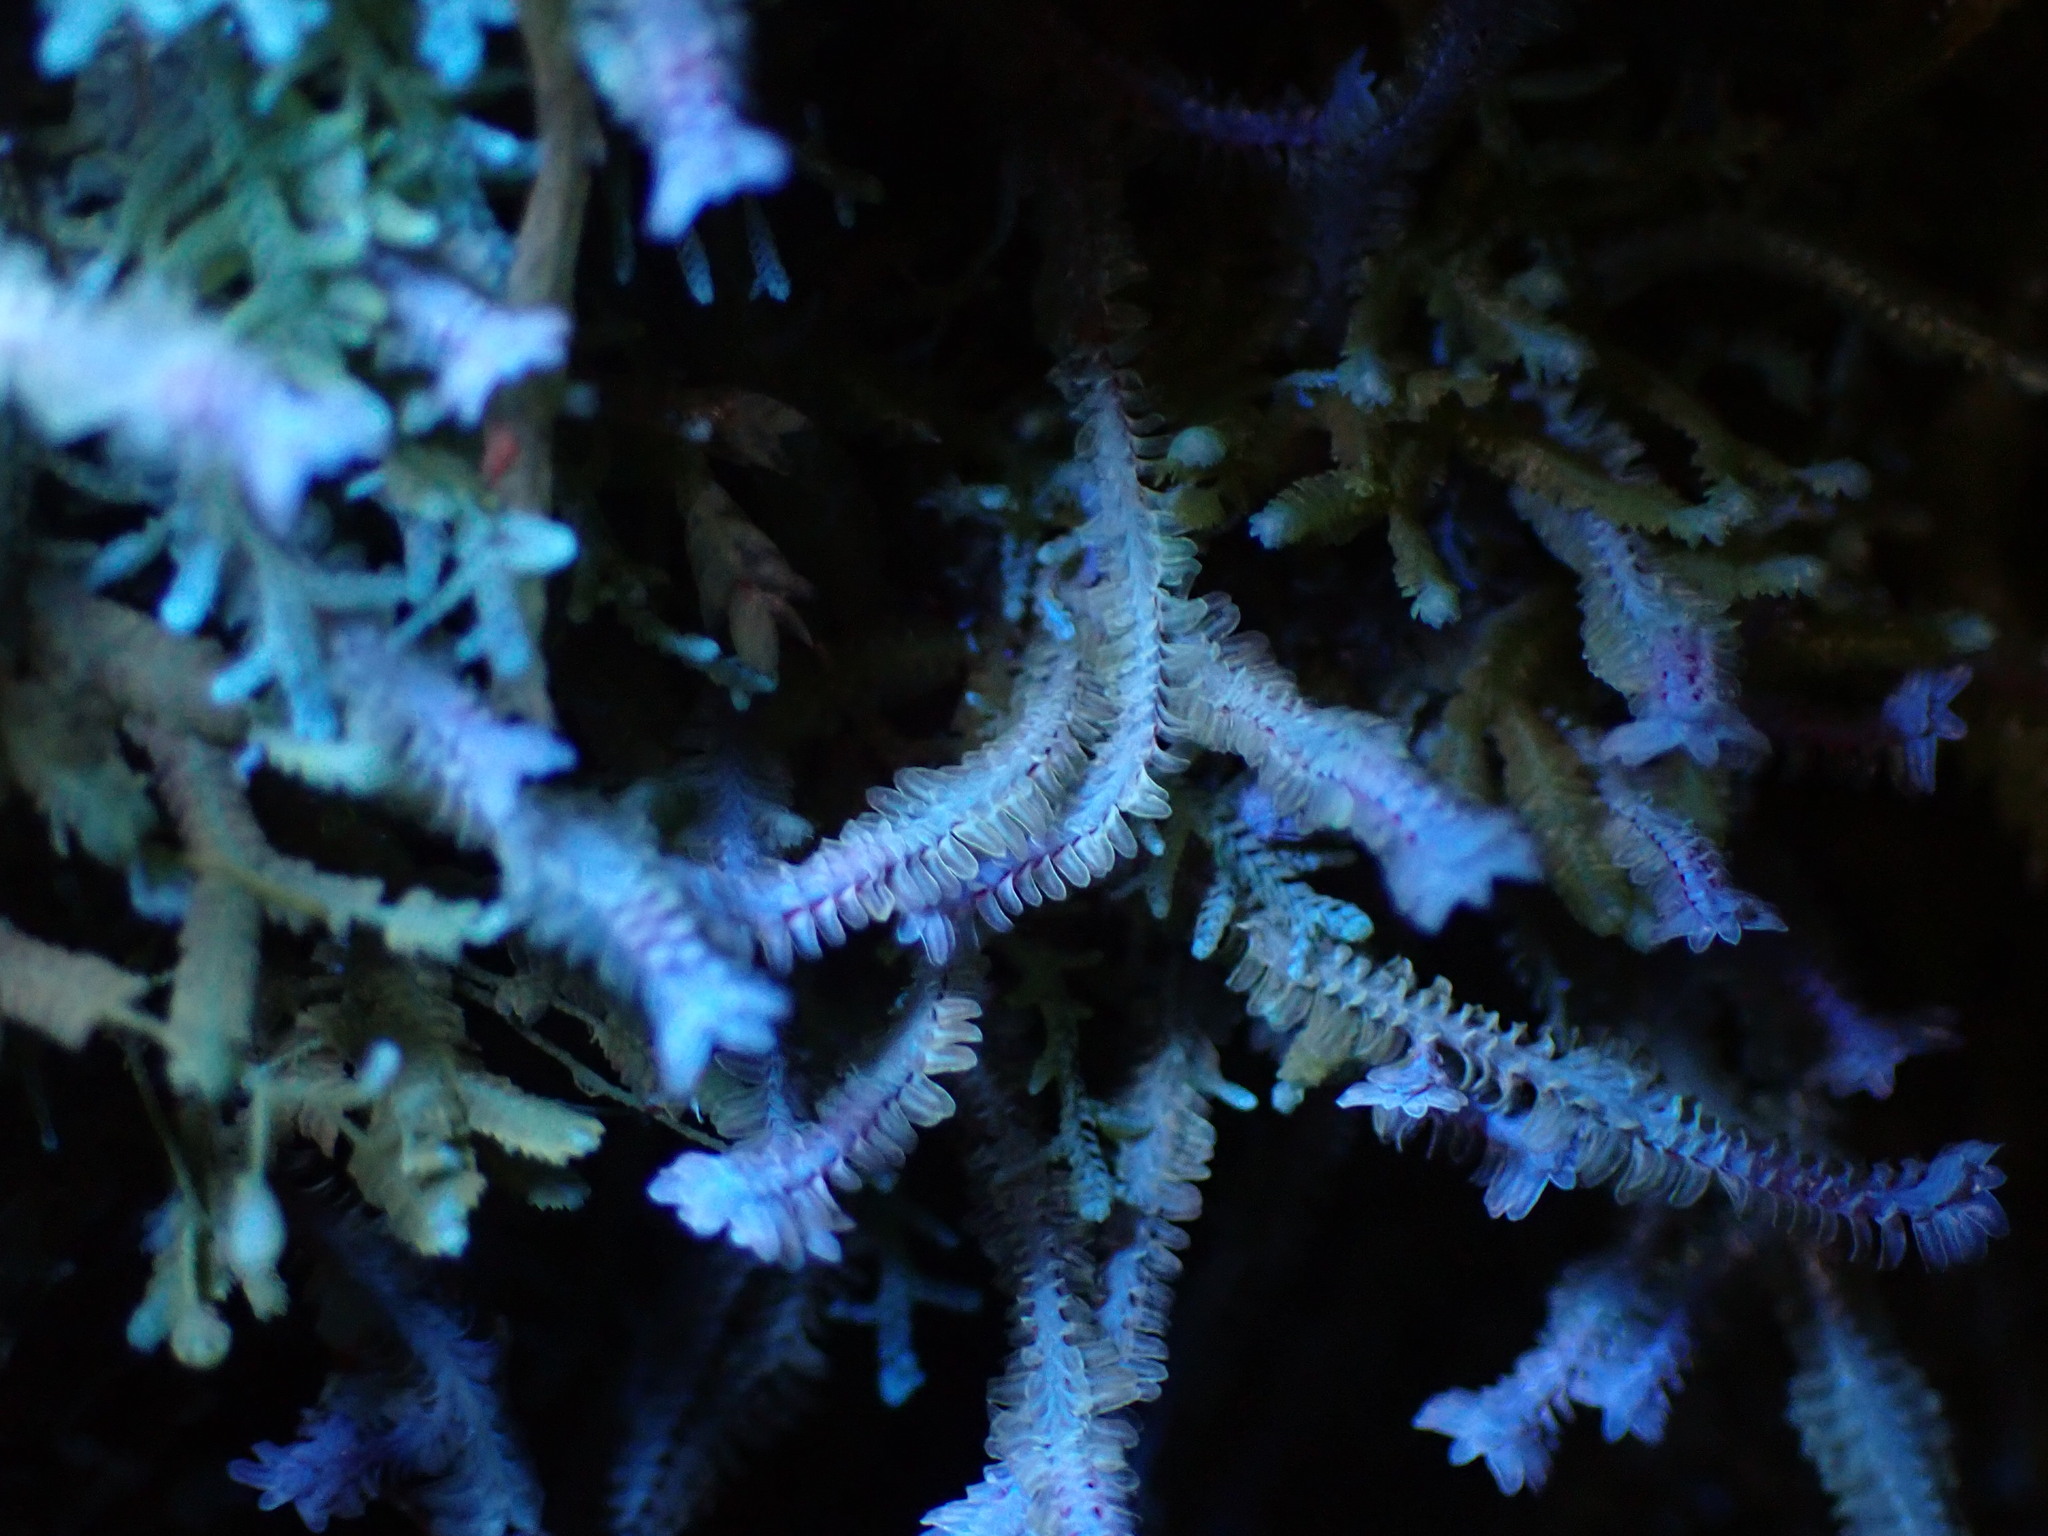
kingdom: Plantae
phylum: Marchantiophyta
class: Jungermanniopsida
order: Jungermanniales
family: Scapaniaceae
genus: Diplophyllum
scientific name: Diplophyllum albicans
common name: White earwort
